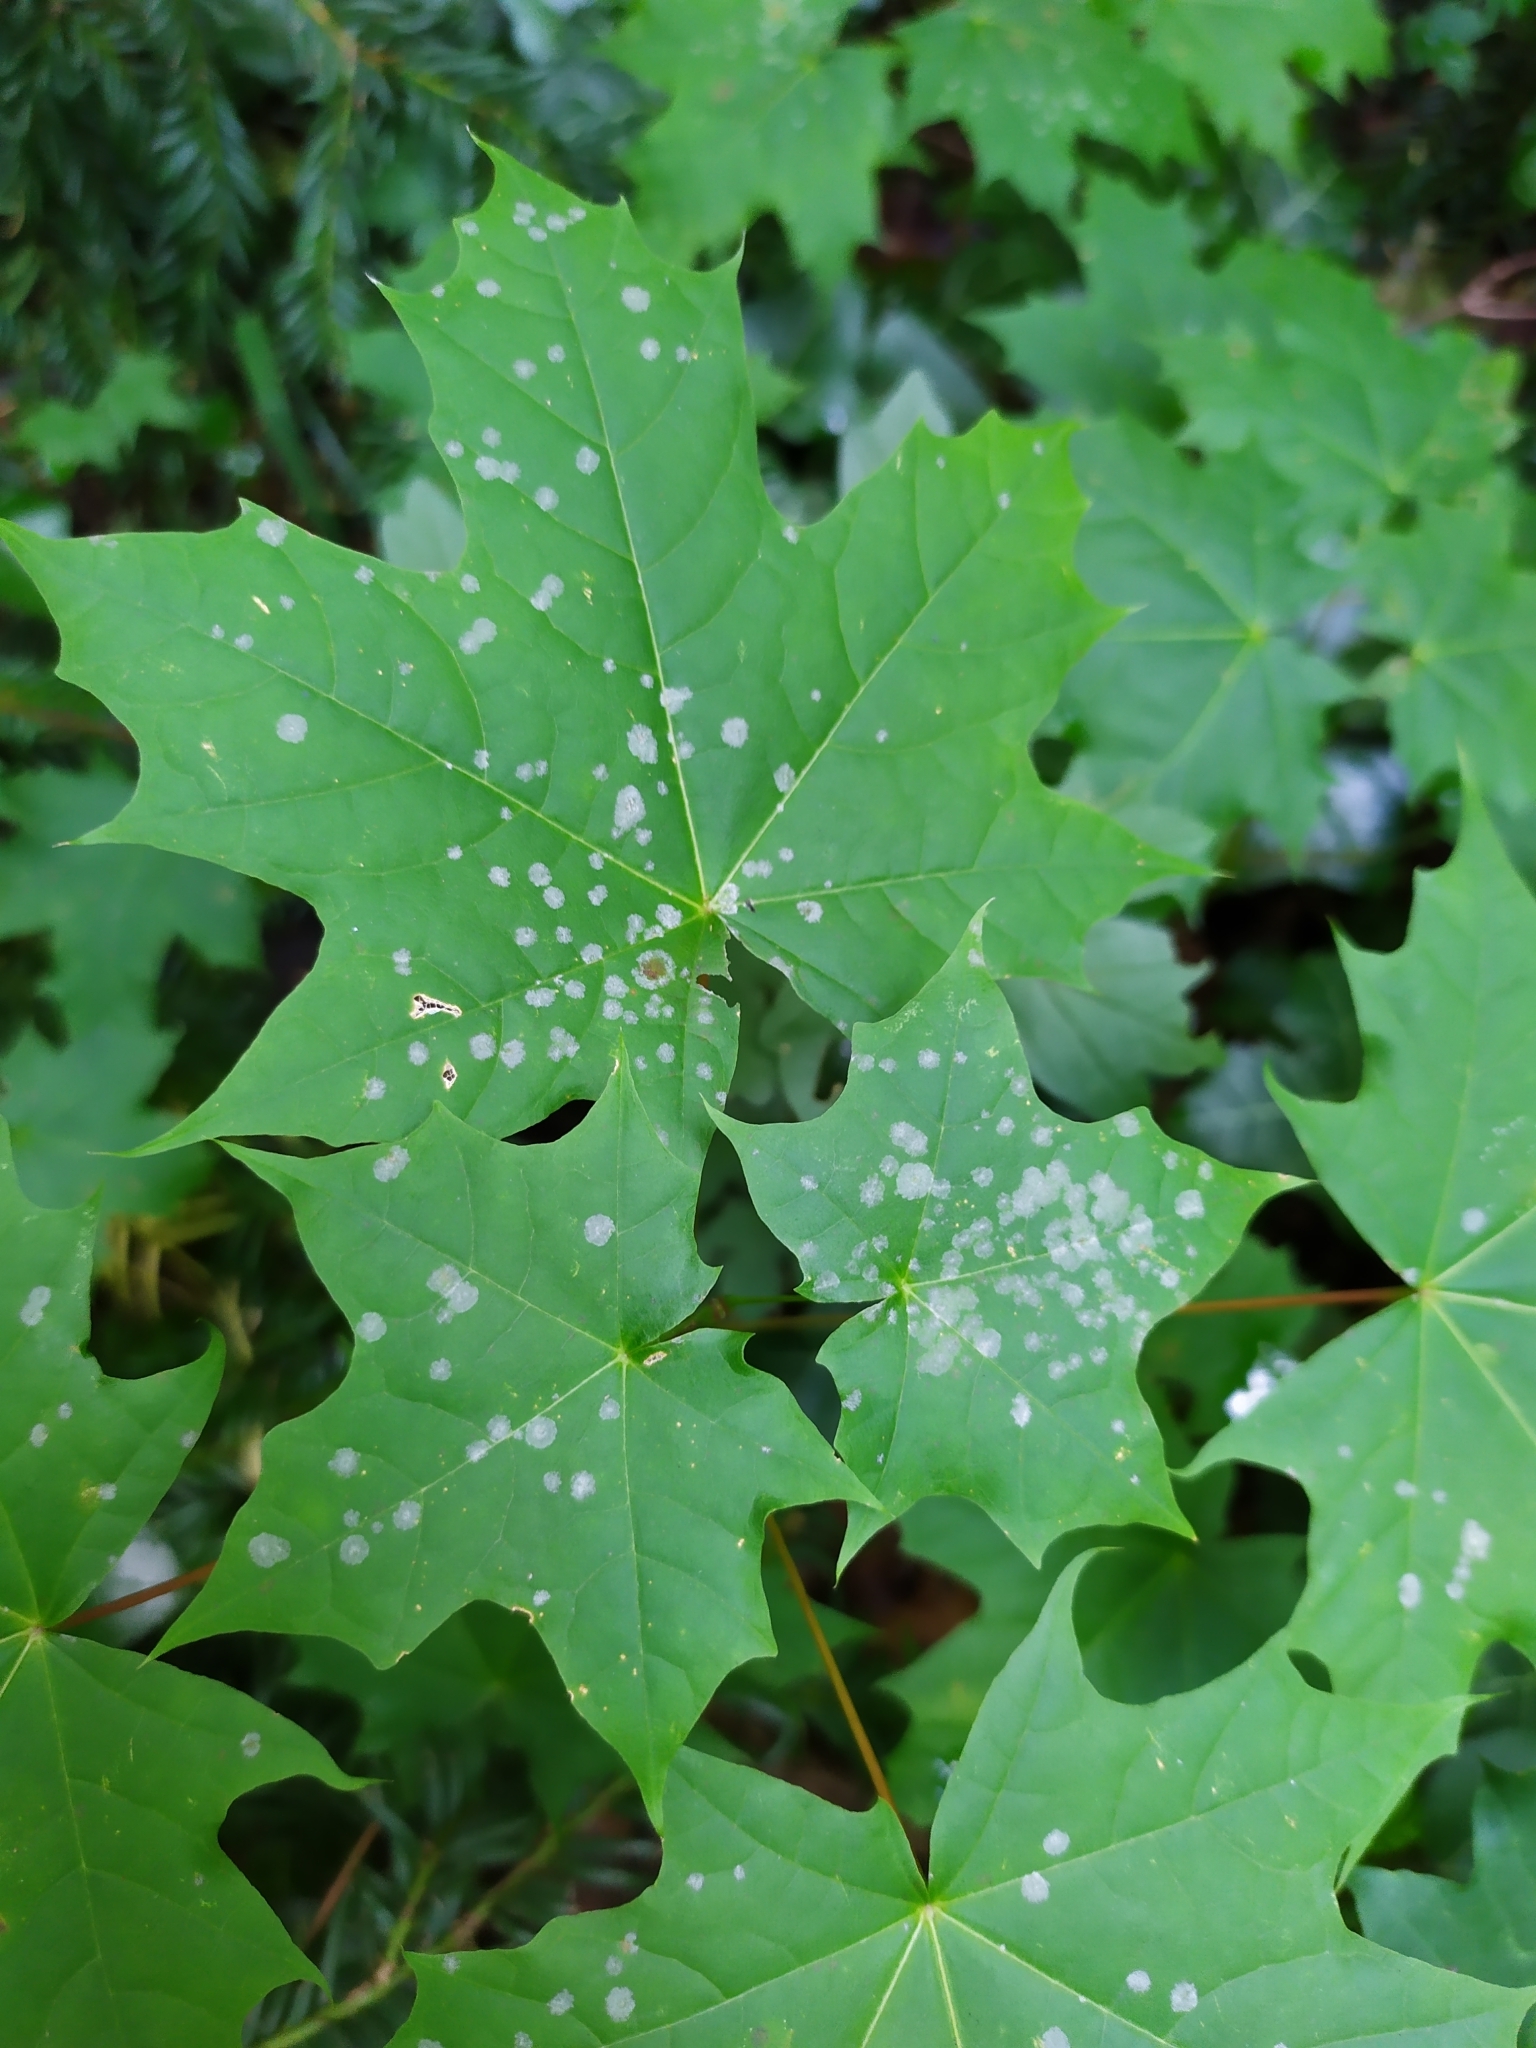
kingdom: Fungi
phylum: Ascomycota
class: Leotiomycetes
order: Helotiales
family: Erysiphaceae
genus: Sawadaea
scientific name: Sawadaea tulasnei
